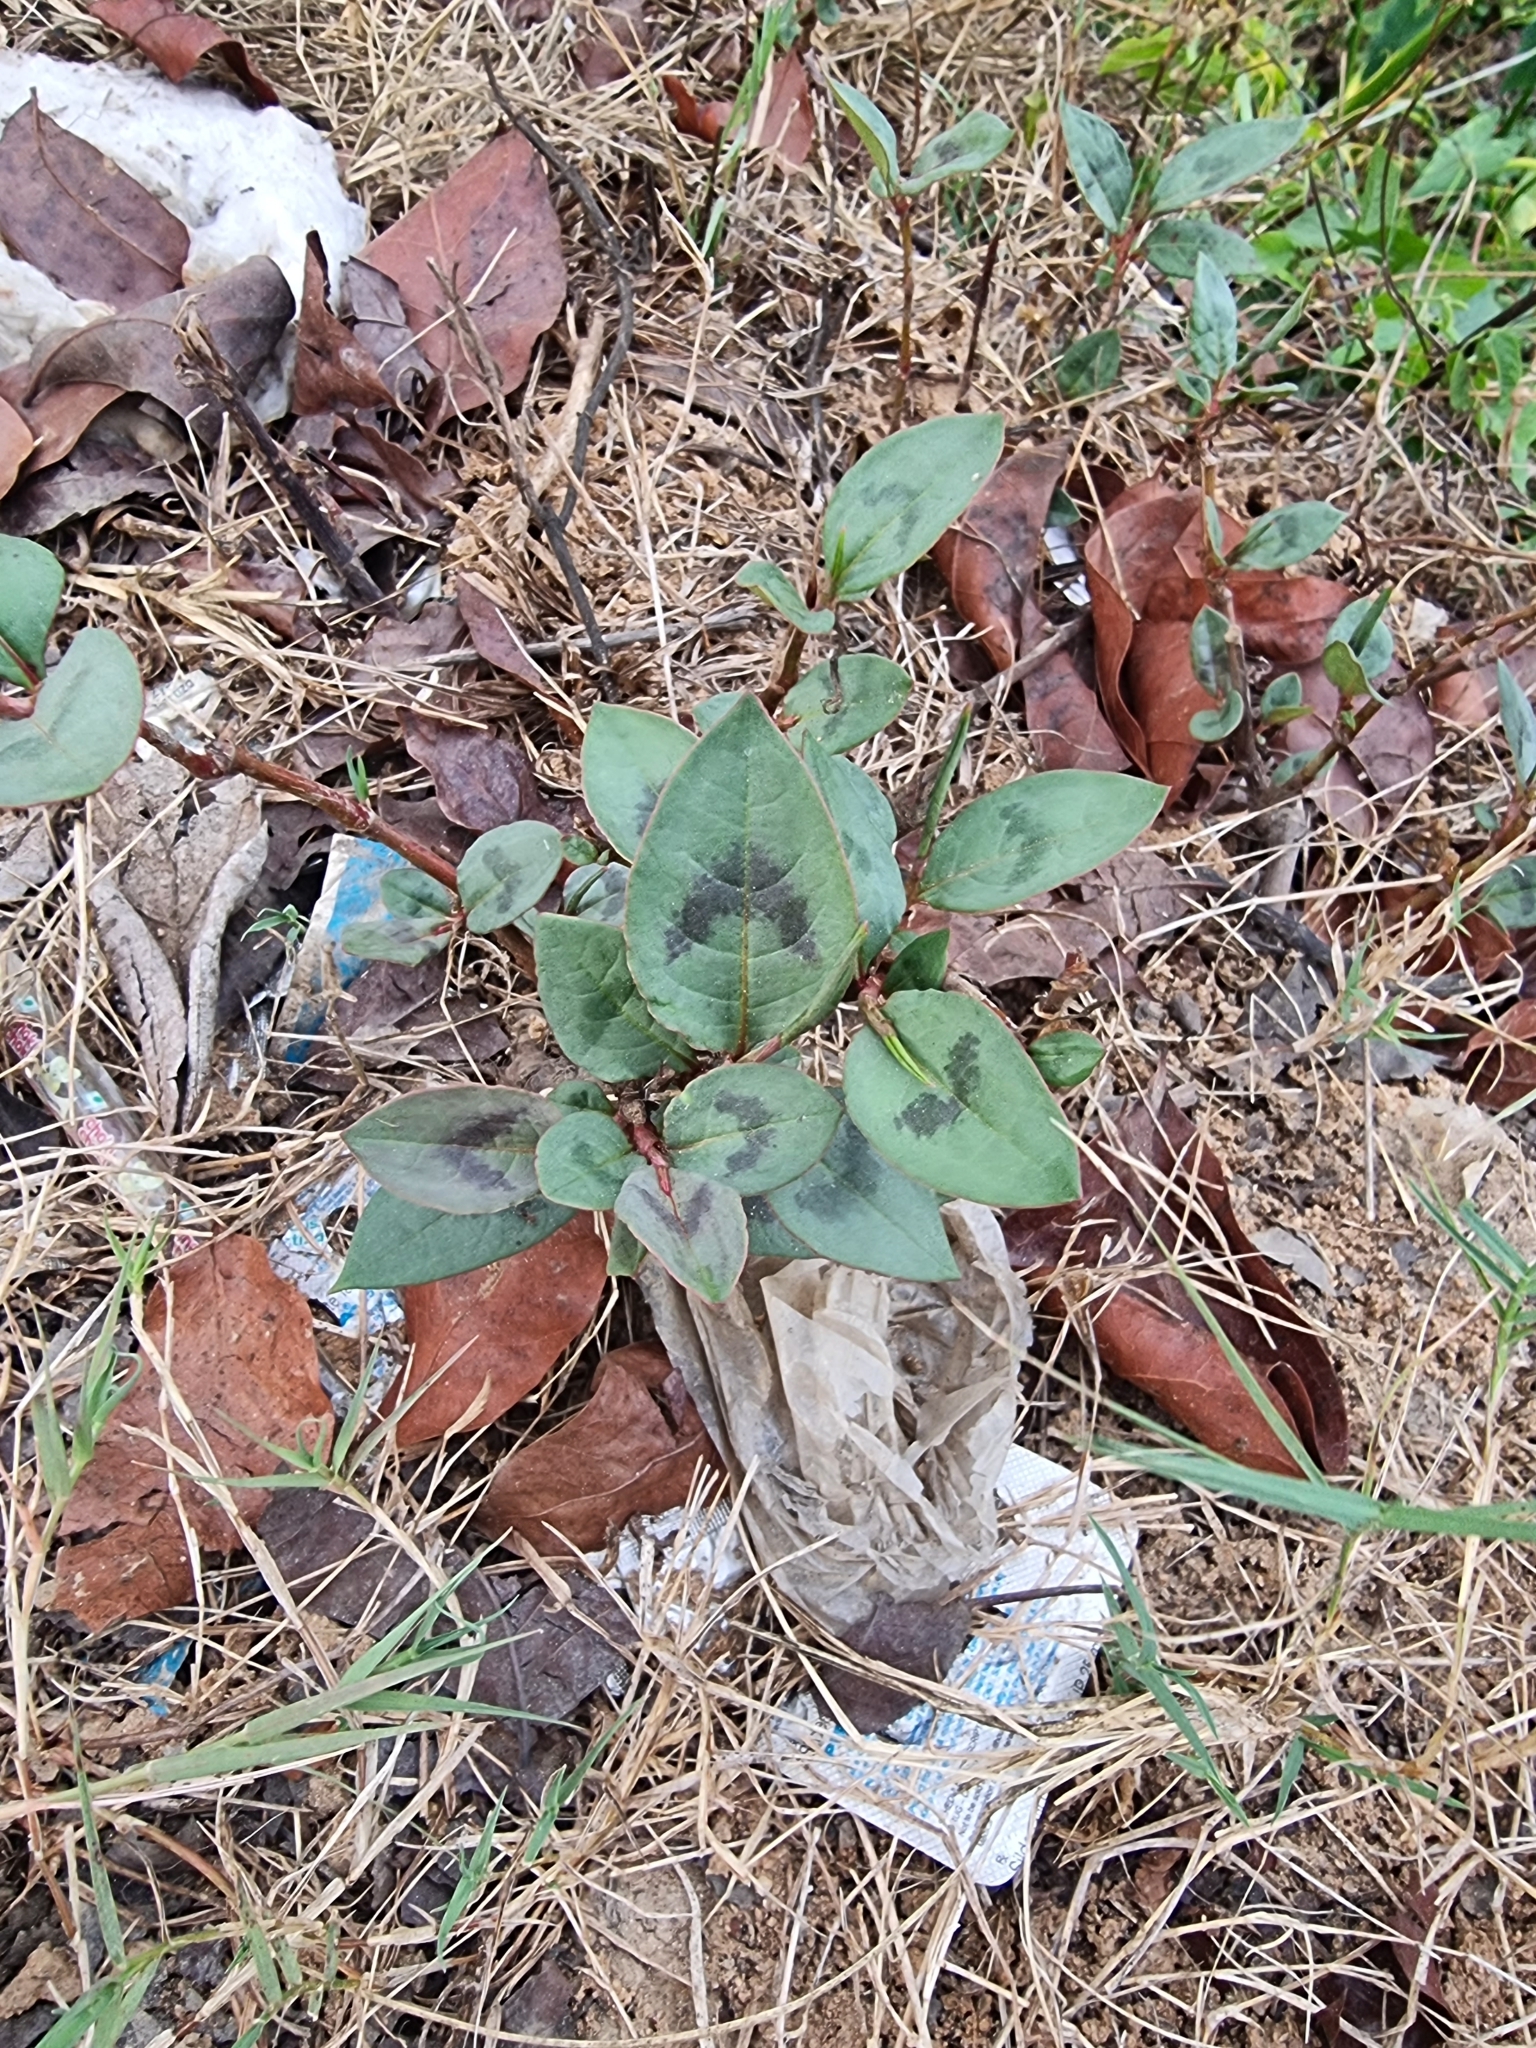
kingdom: Plantae
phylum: Tracheophyta
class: Magnoliopsida
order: Caryophyllales
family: Polygonaceae
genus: Persicaria
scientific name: Persicaria chinensis
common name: Chinese knotweed
